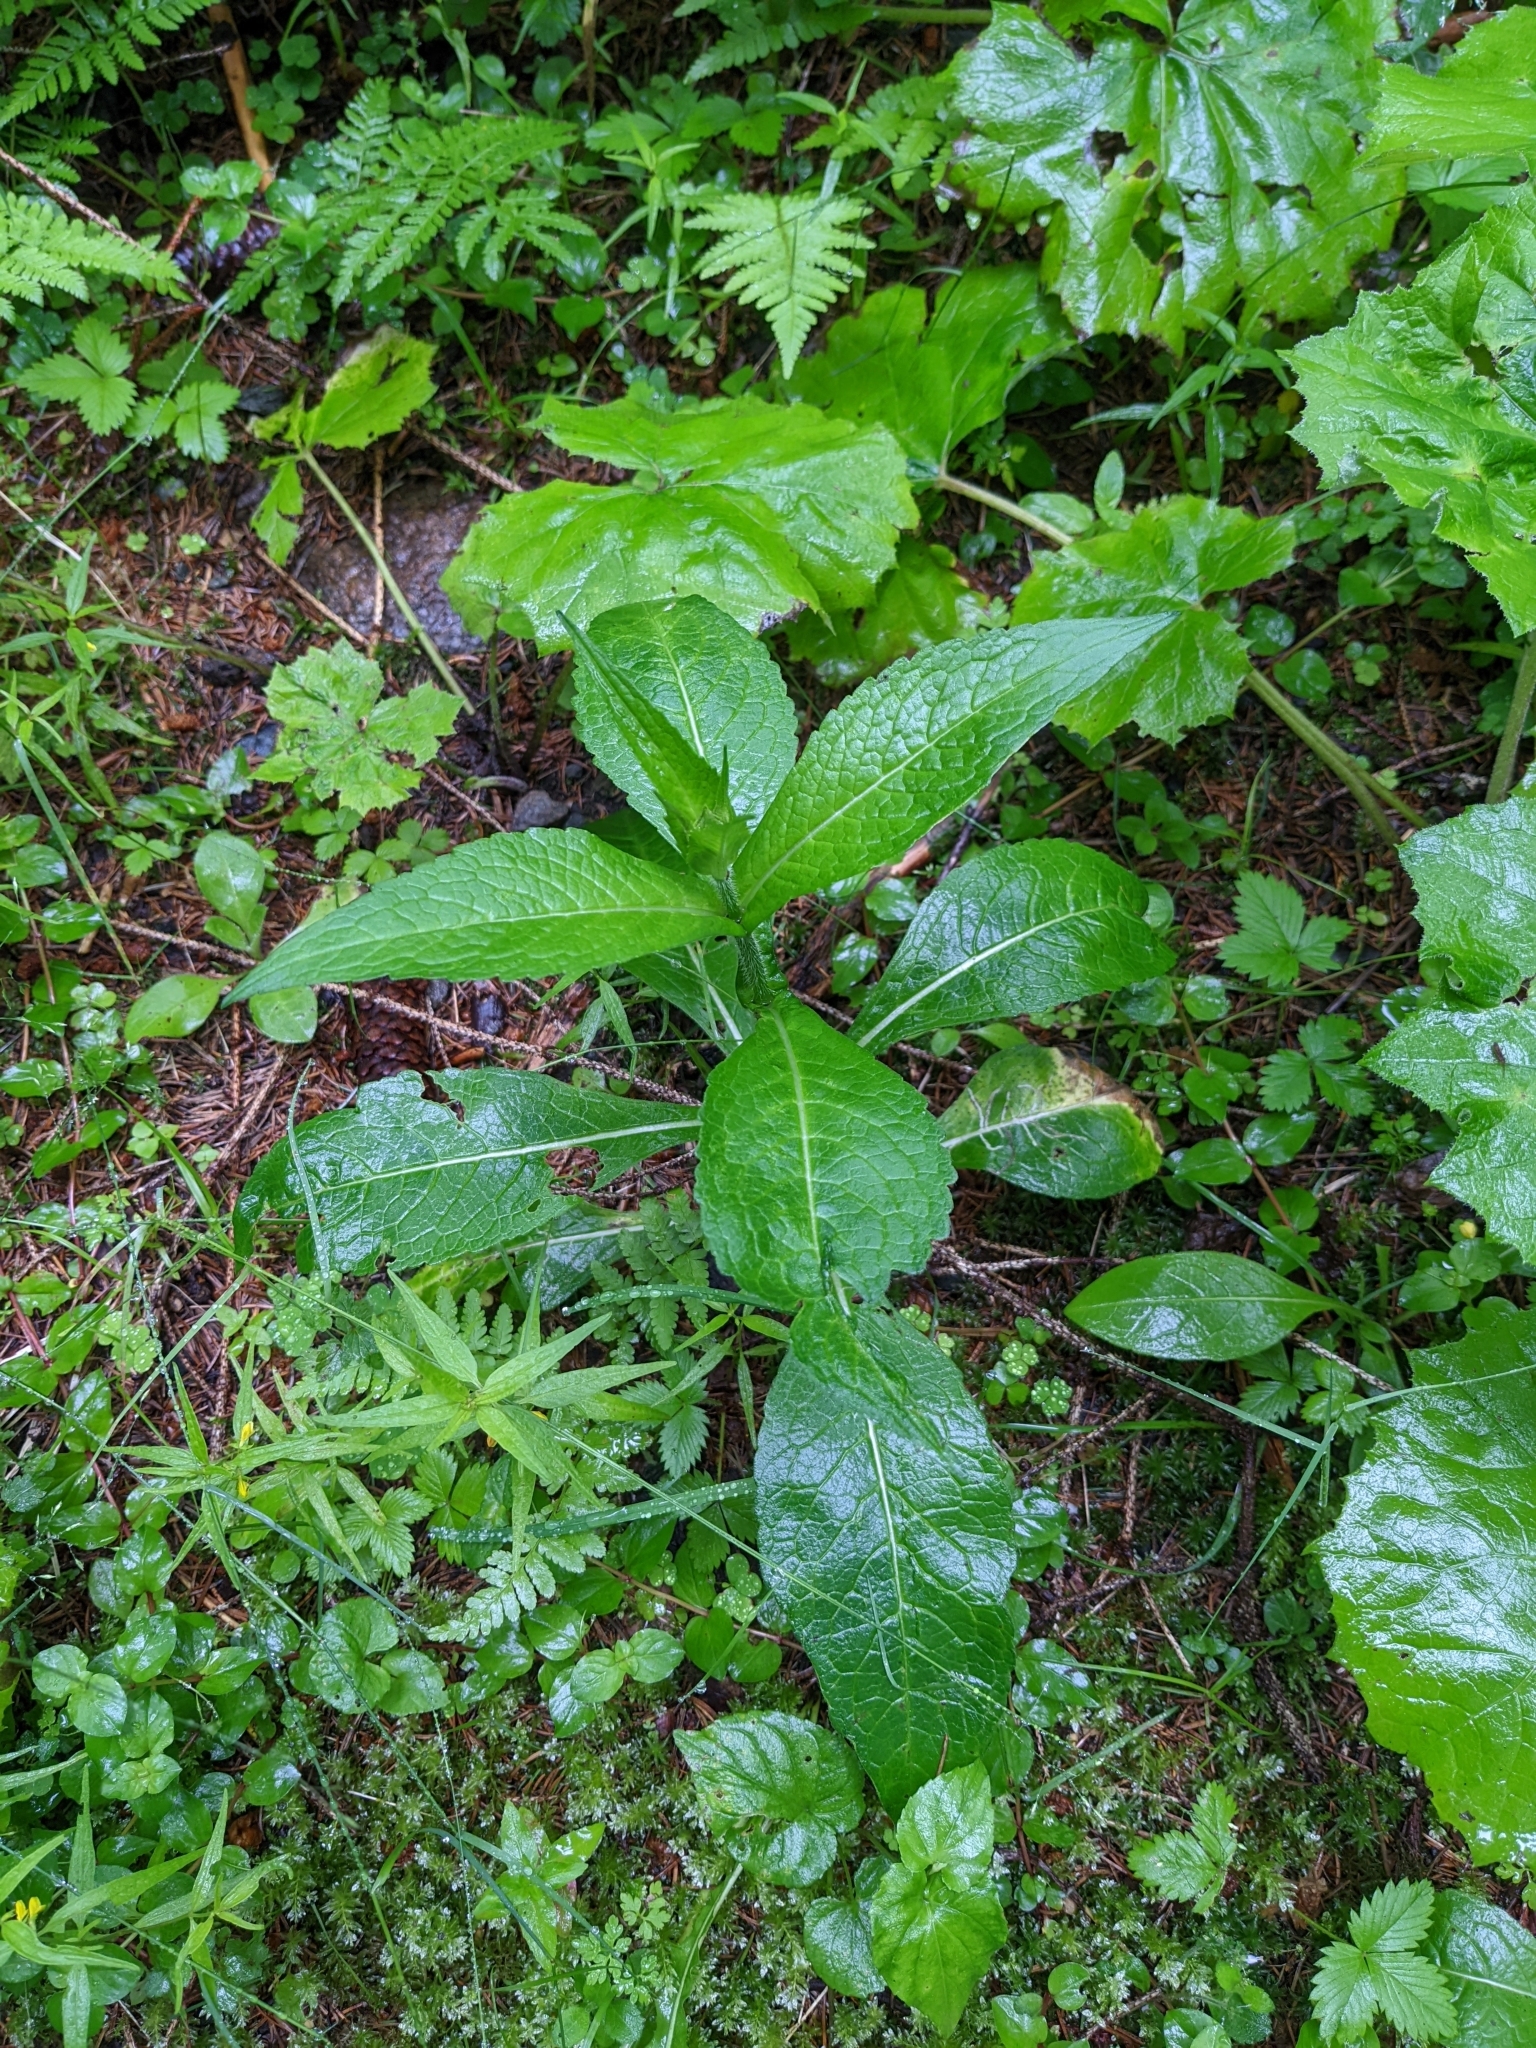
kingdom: Plantae
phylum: Tracheophyta
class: Magnoliopsida
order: Dipsacales
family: Caprifoliaceae
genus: Knautia
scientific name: Knautia dipsacifolia
